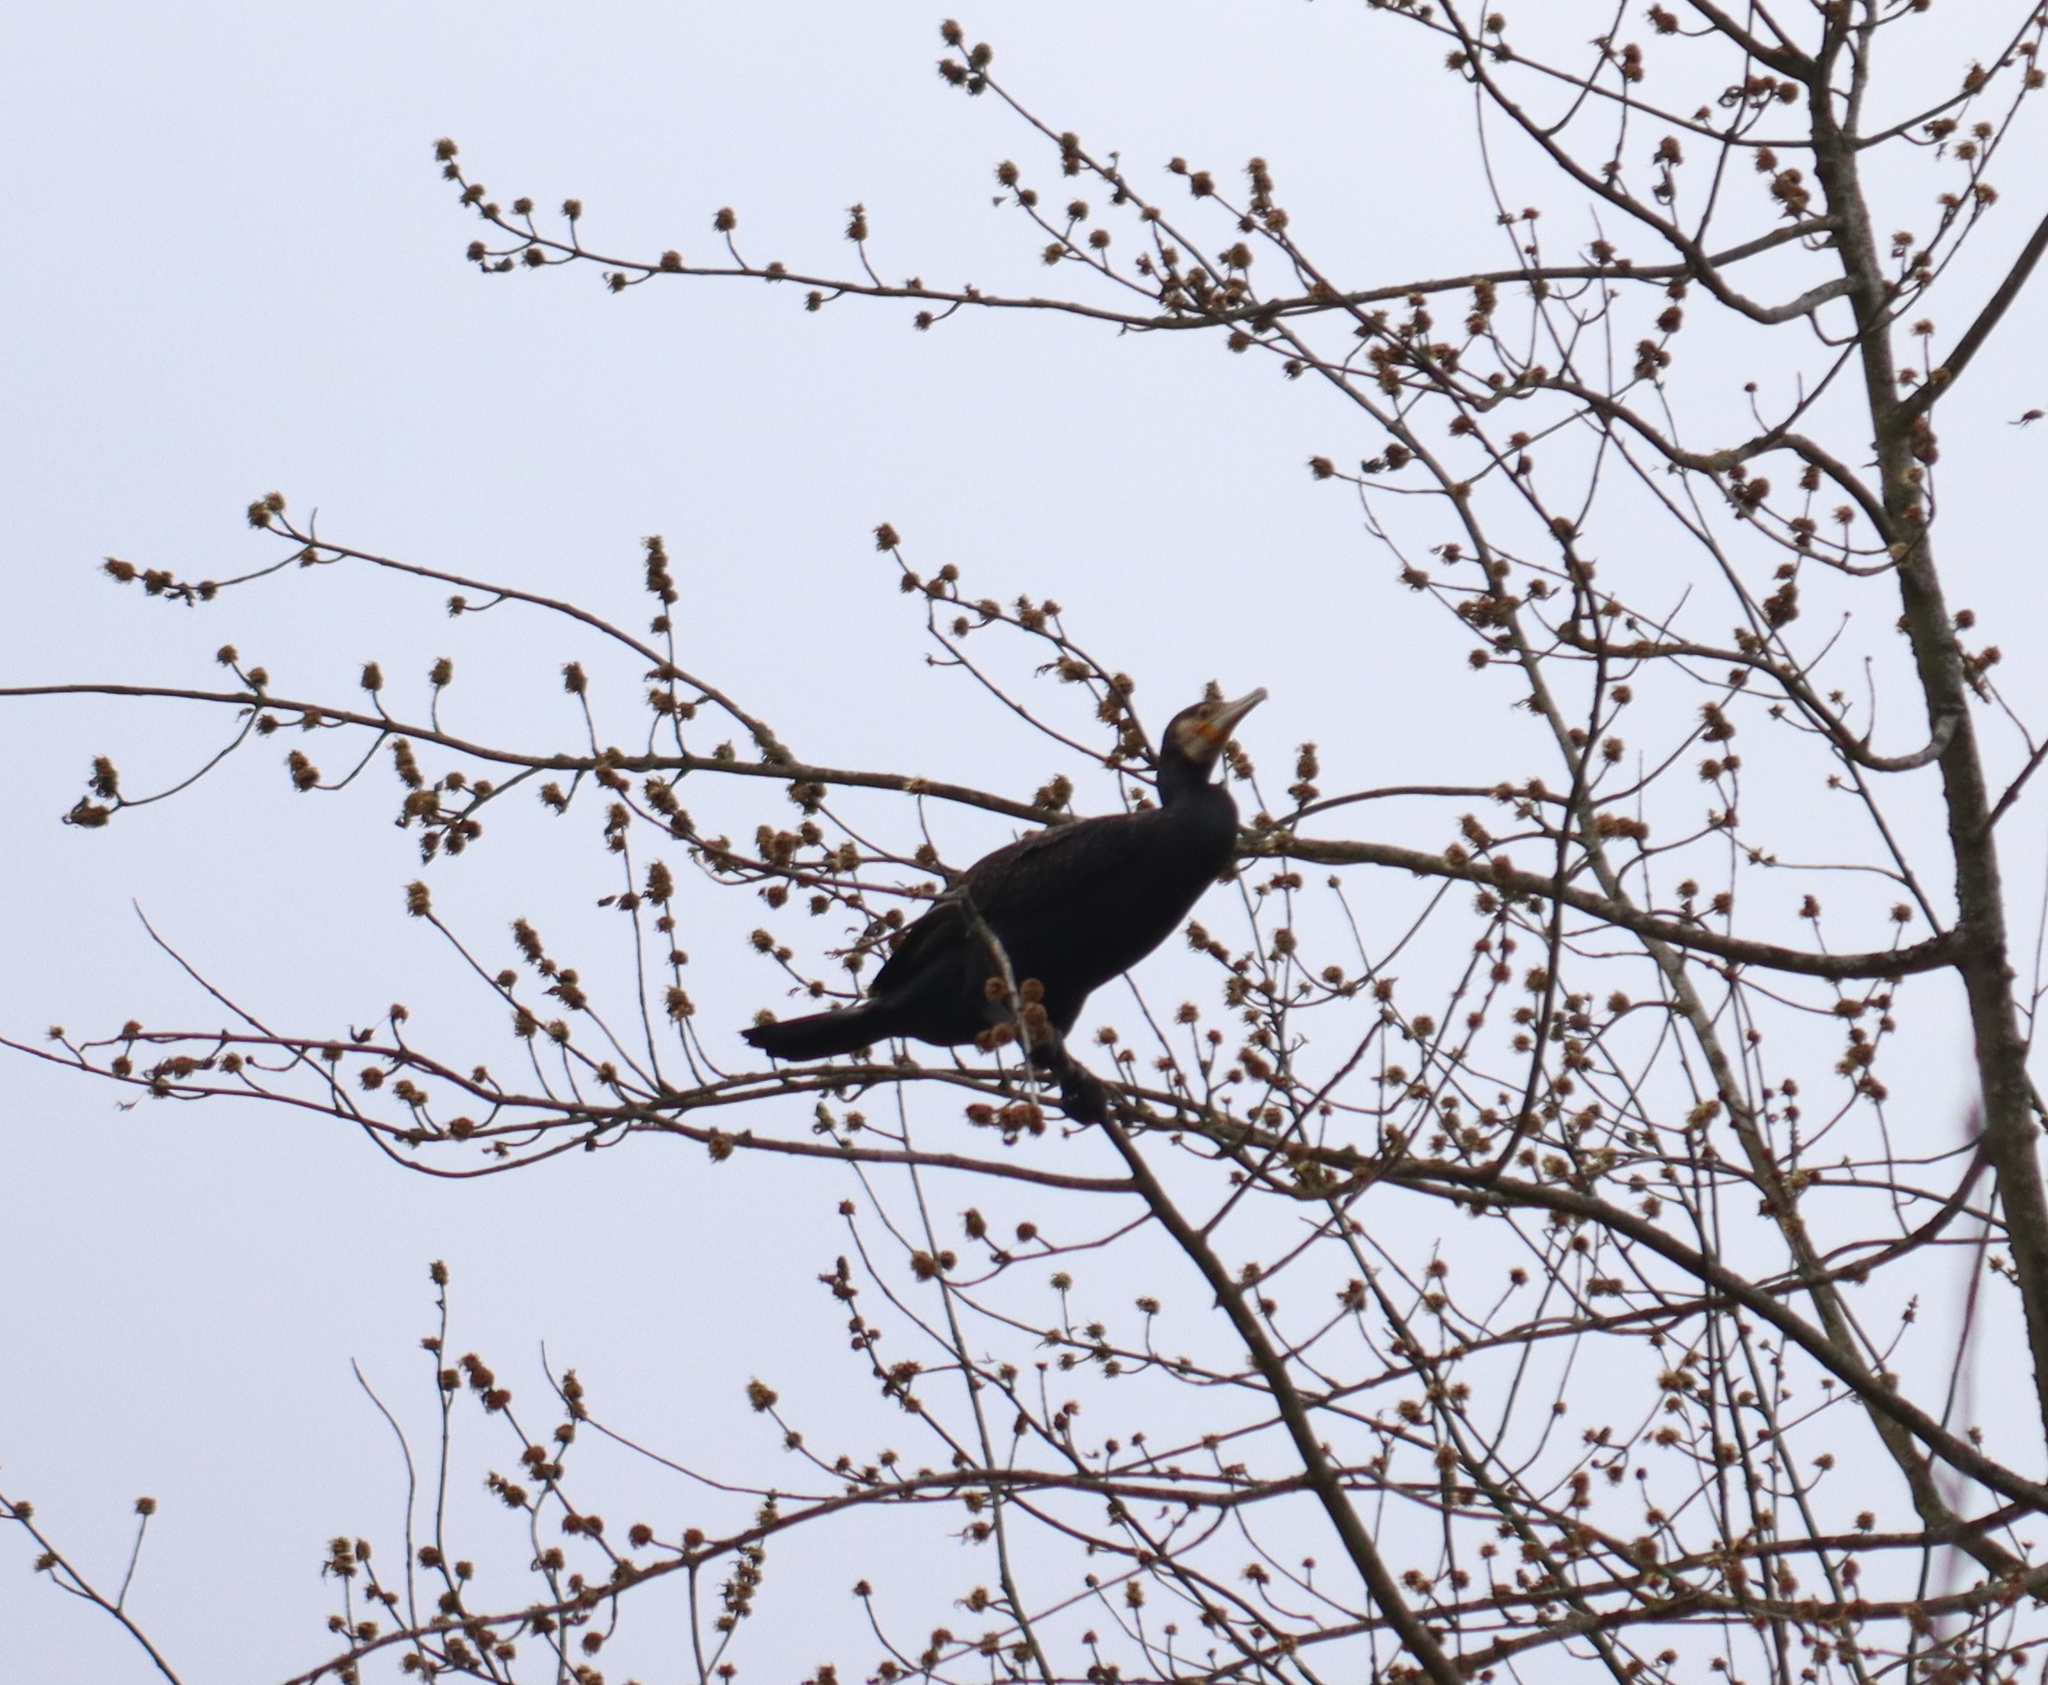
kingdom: Animalia
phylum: Chordata
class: Aves
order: Suliformes
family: Phalacrocoracidae
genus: Phalacrocorax
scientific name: Phalacrocorax carbo
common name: Great cormorant
